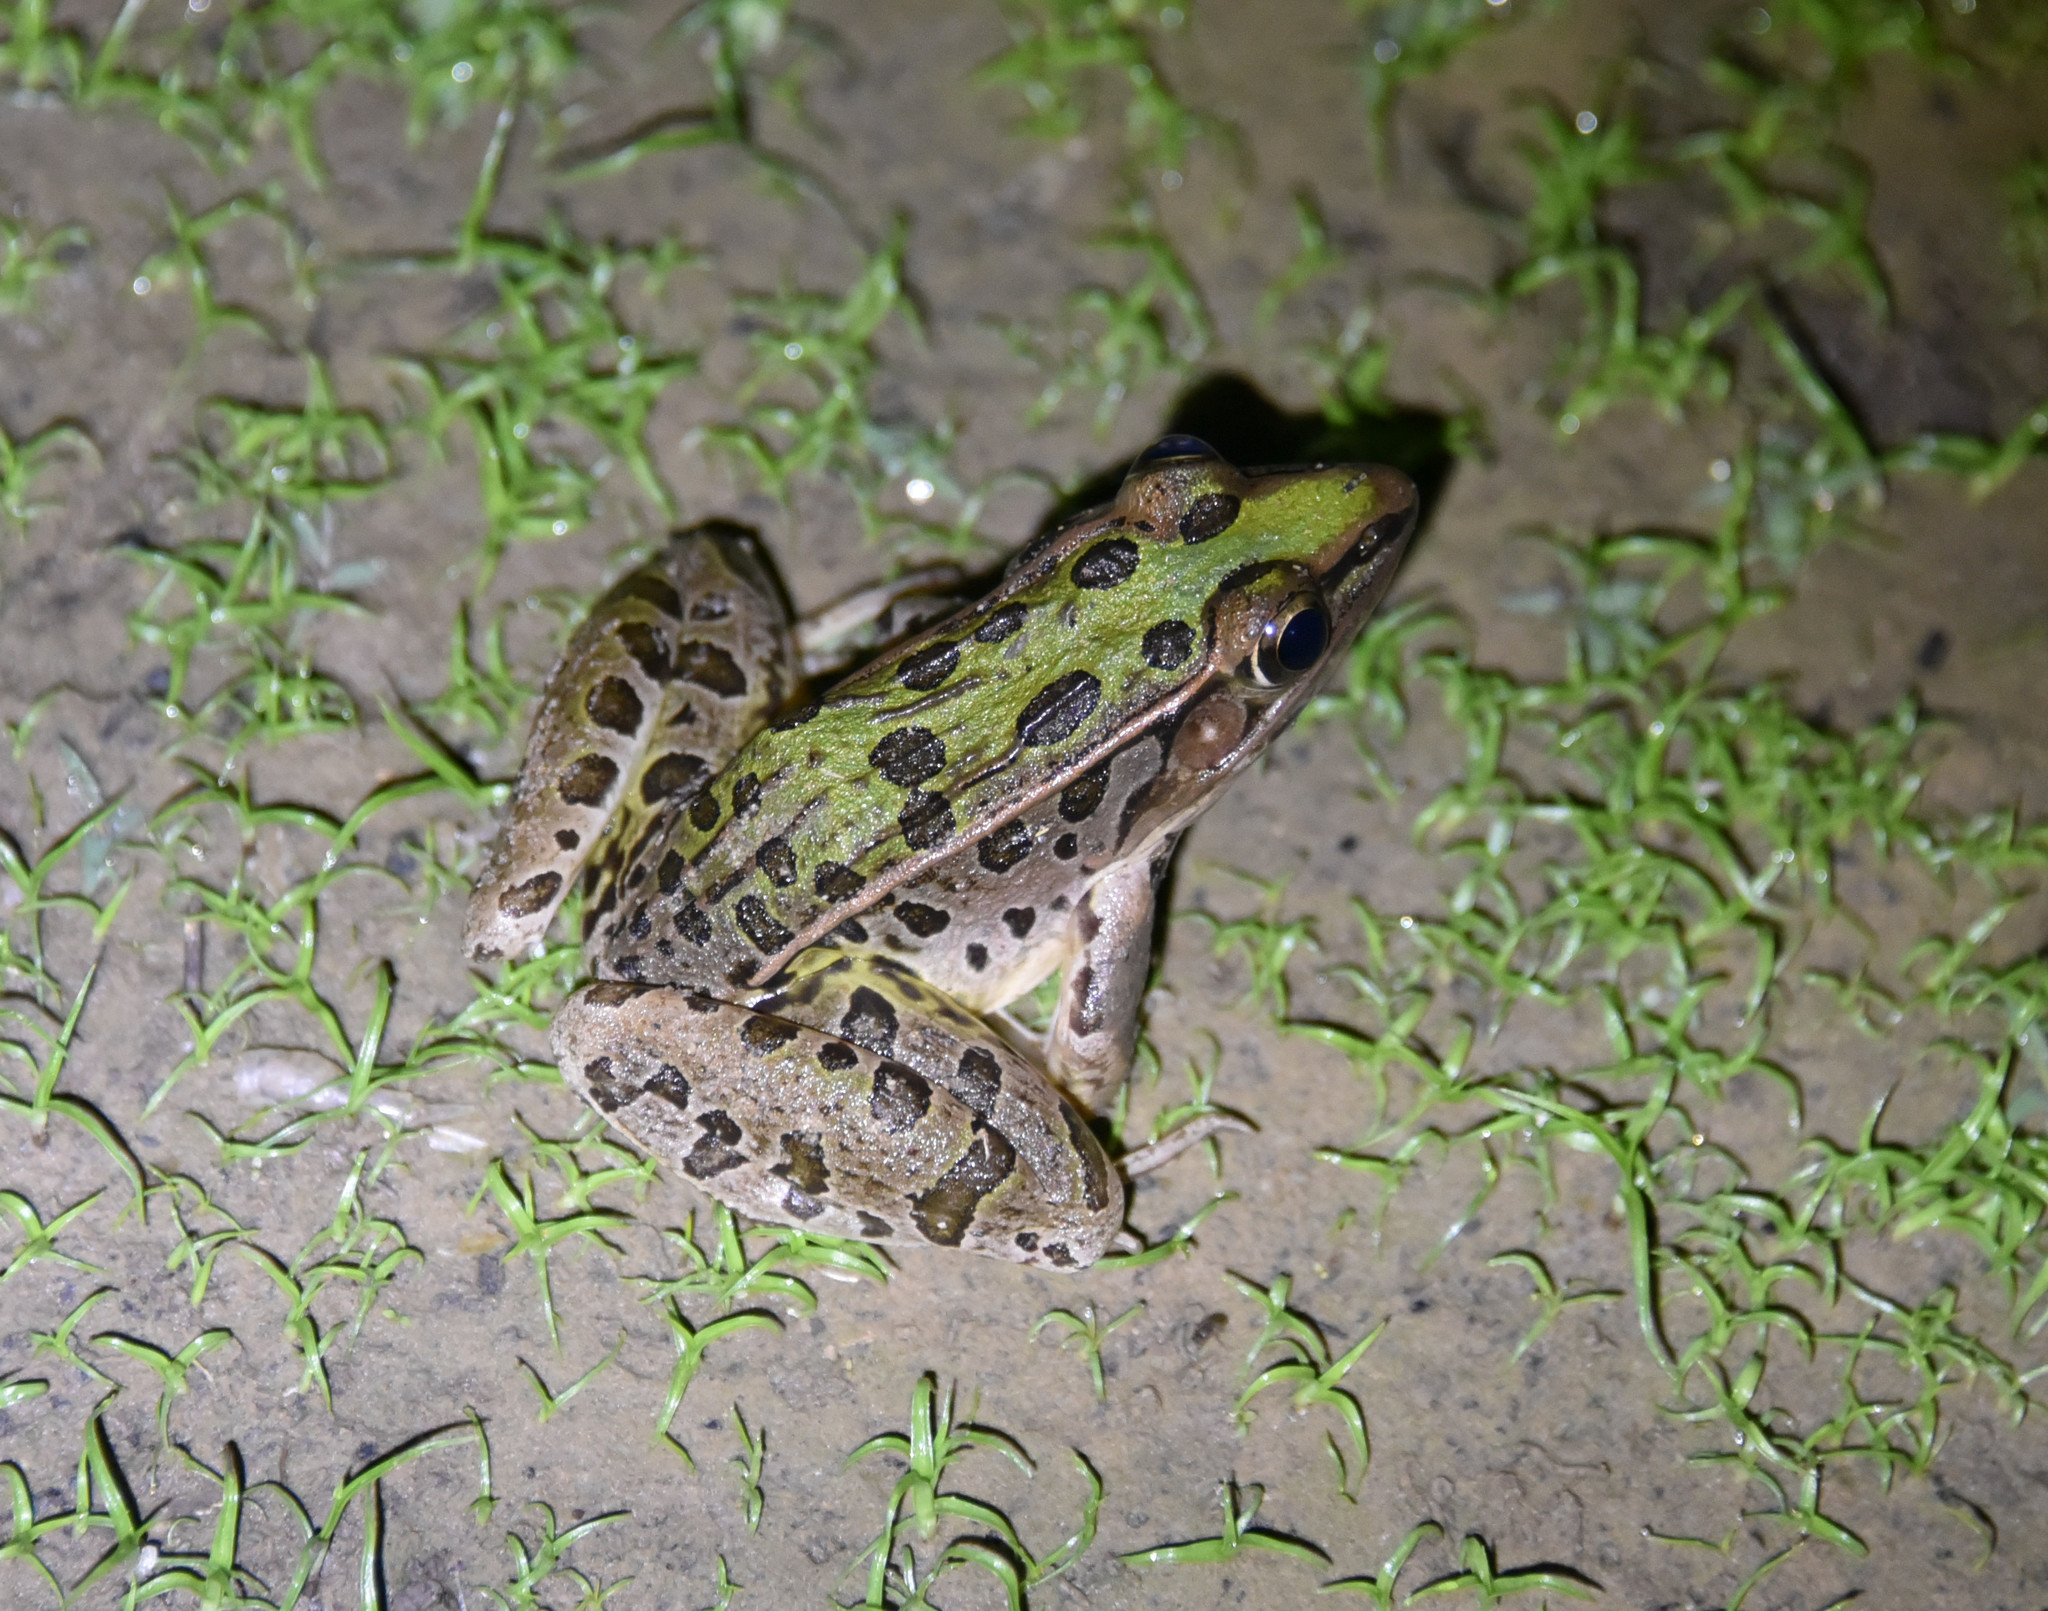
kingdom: Animalia
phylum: Chordata
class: Amphibia
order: Anura
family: Ranidae
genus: Lithobates
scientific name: Lithobates sphenocephalus
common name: Southern leopard frog
